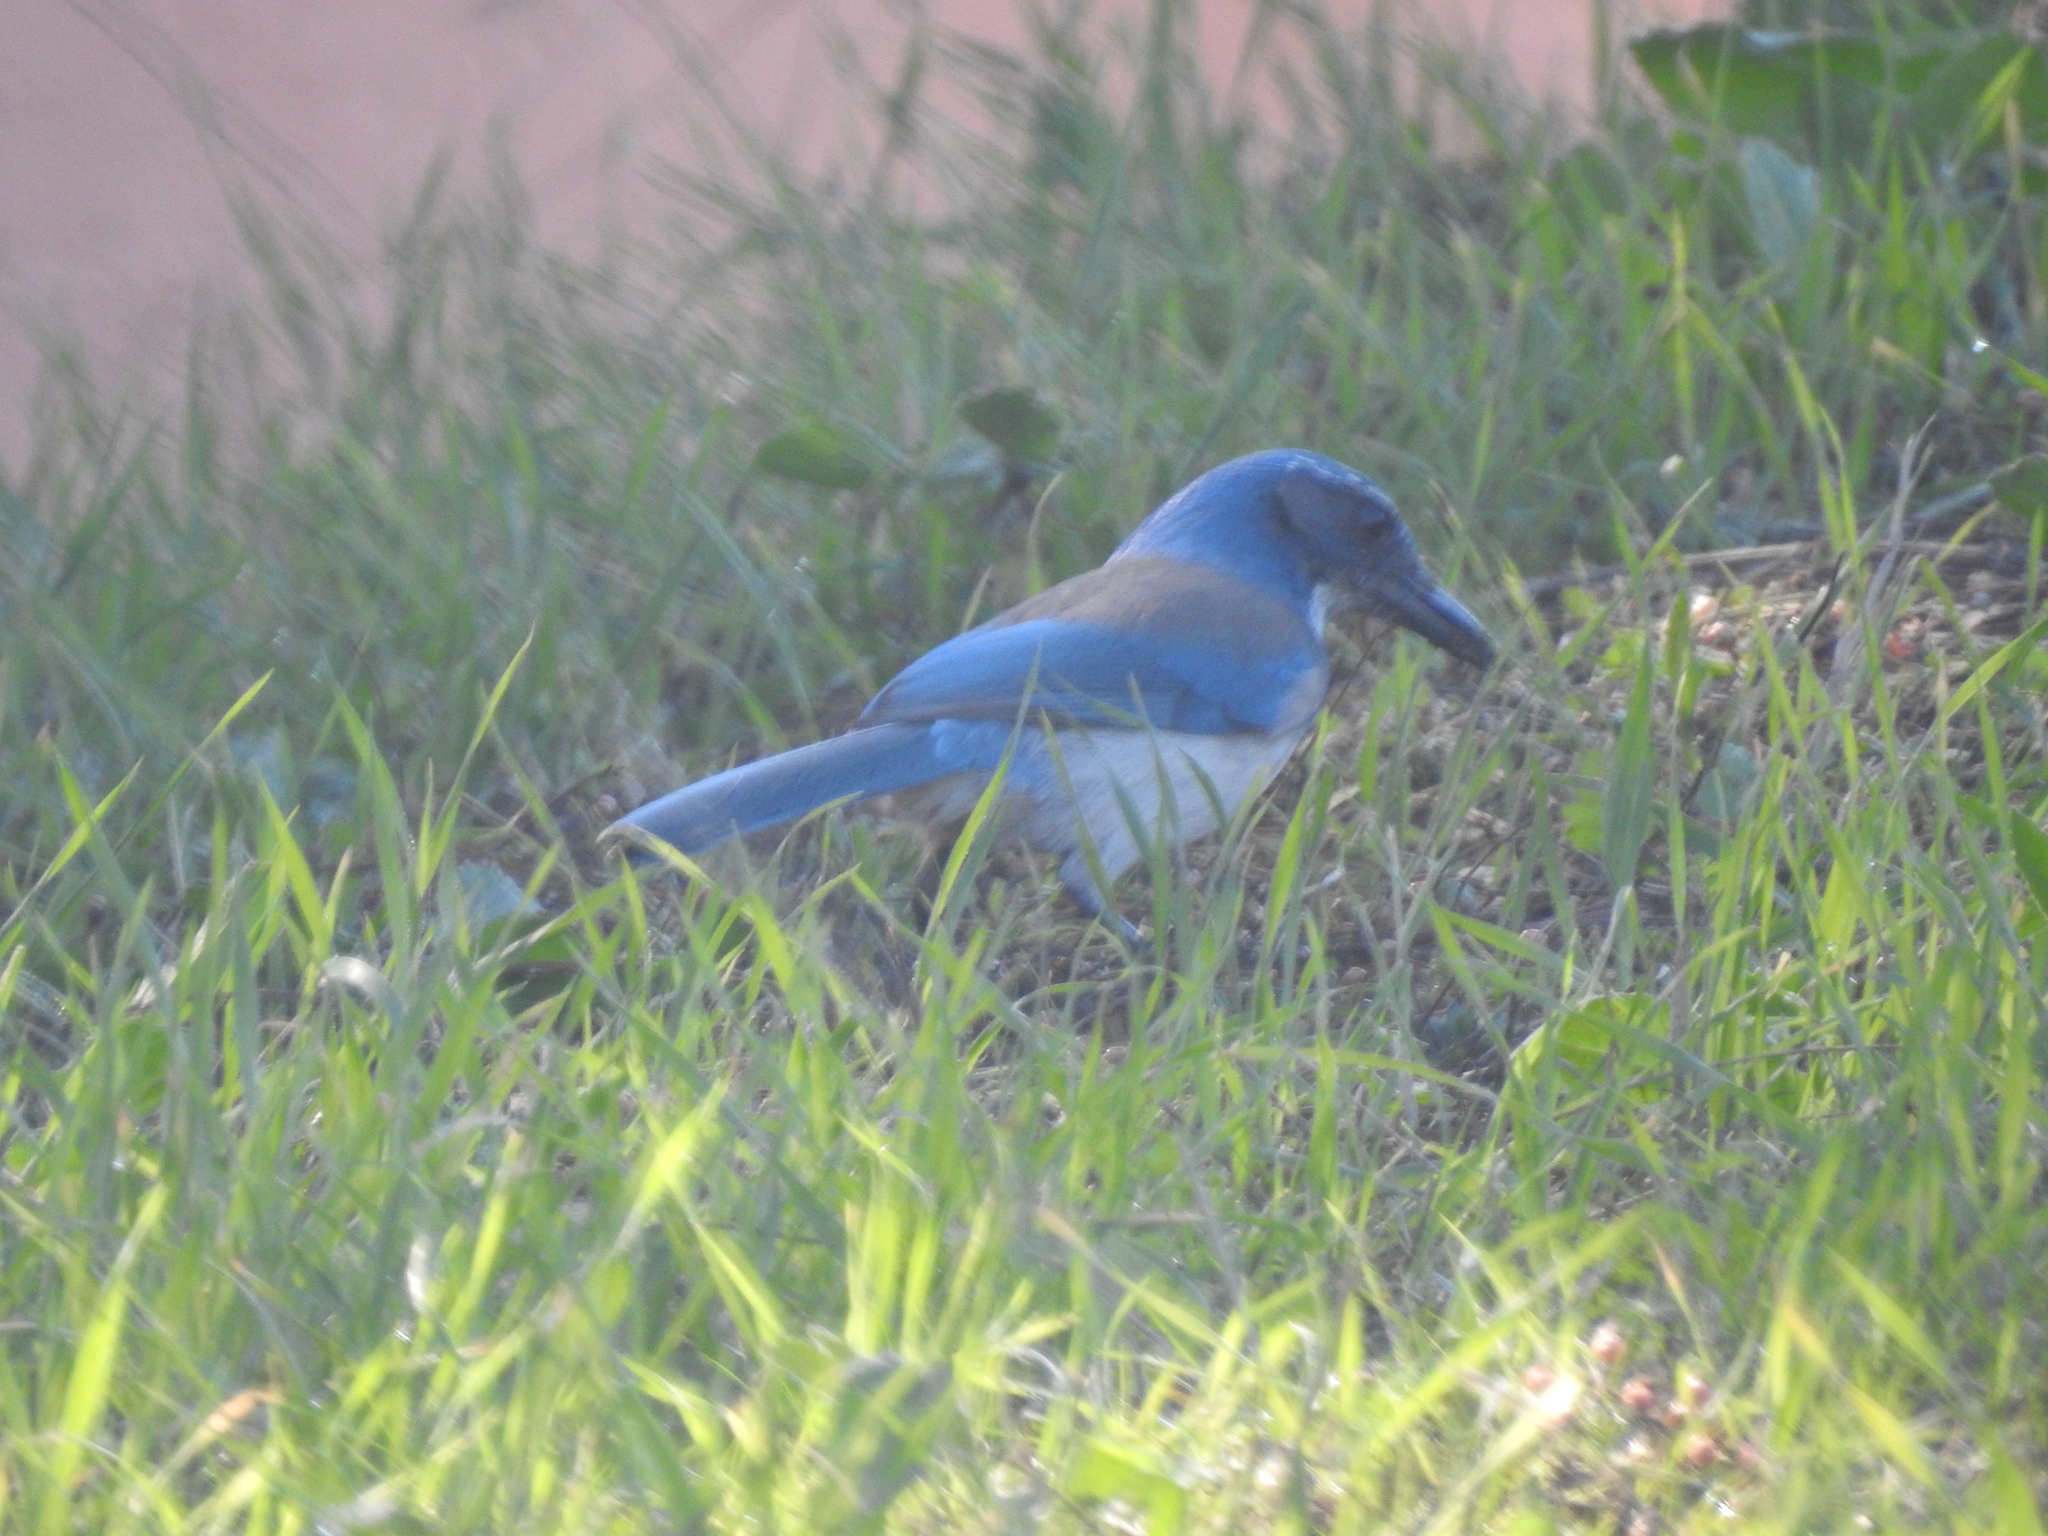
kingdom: Animalia
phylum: Chordata
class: Aves
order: Passeriformes
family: Corvidae
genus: Aphelocoma
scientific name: Aphelocoma californica
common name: California scrub-jay
